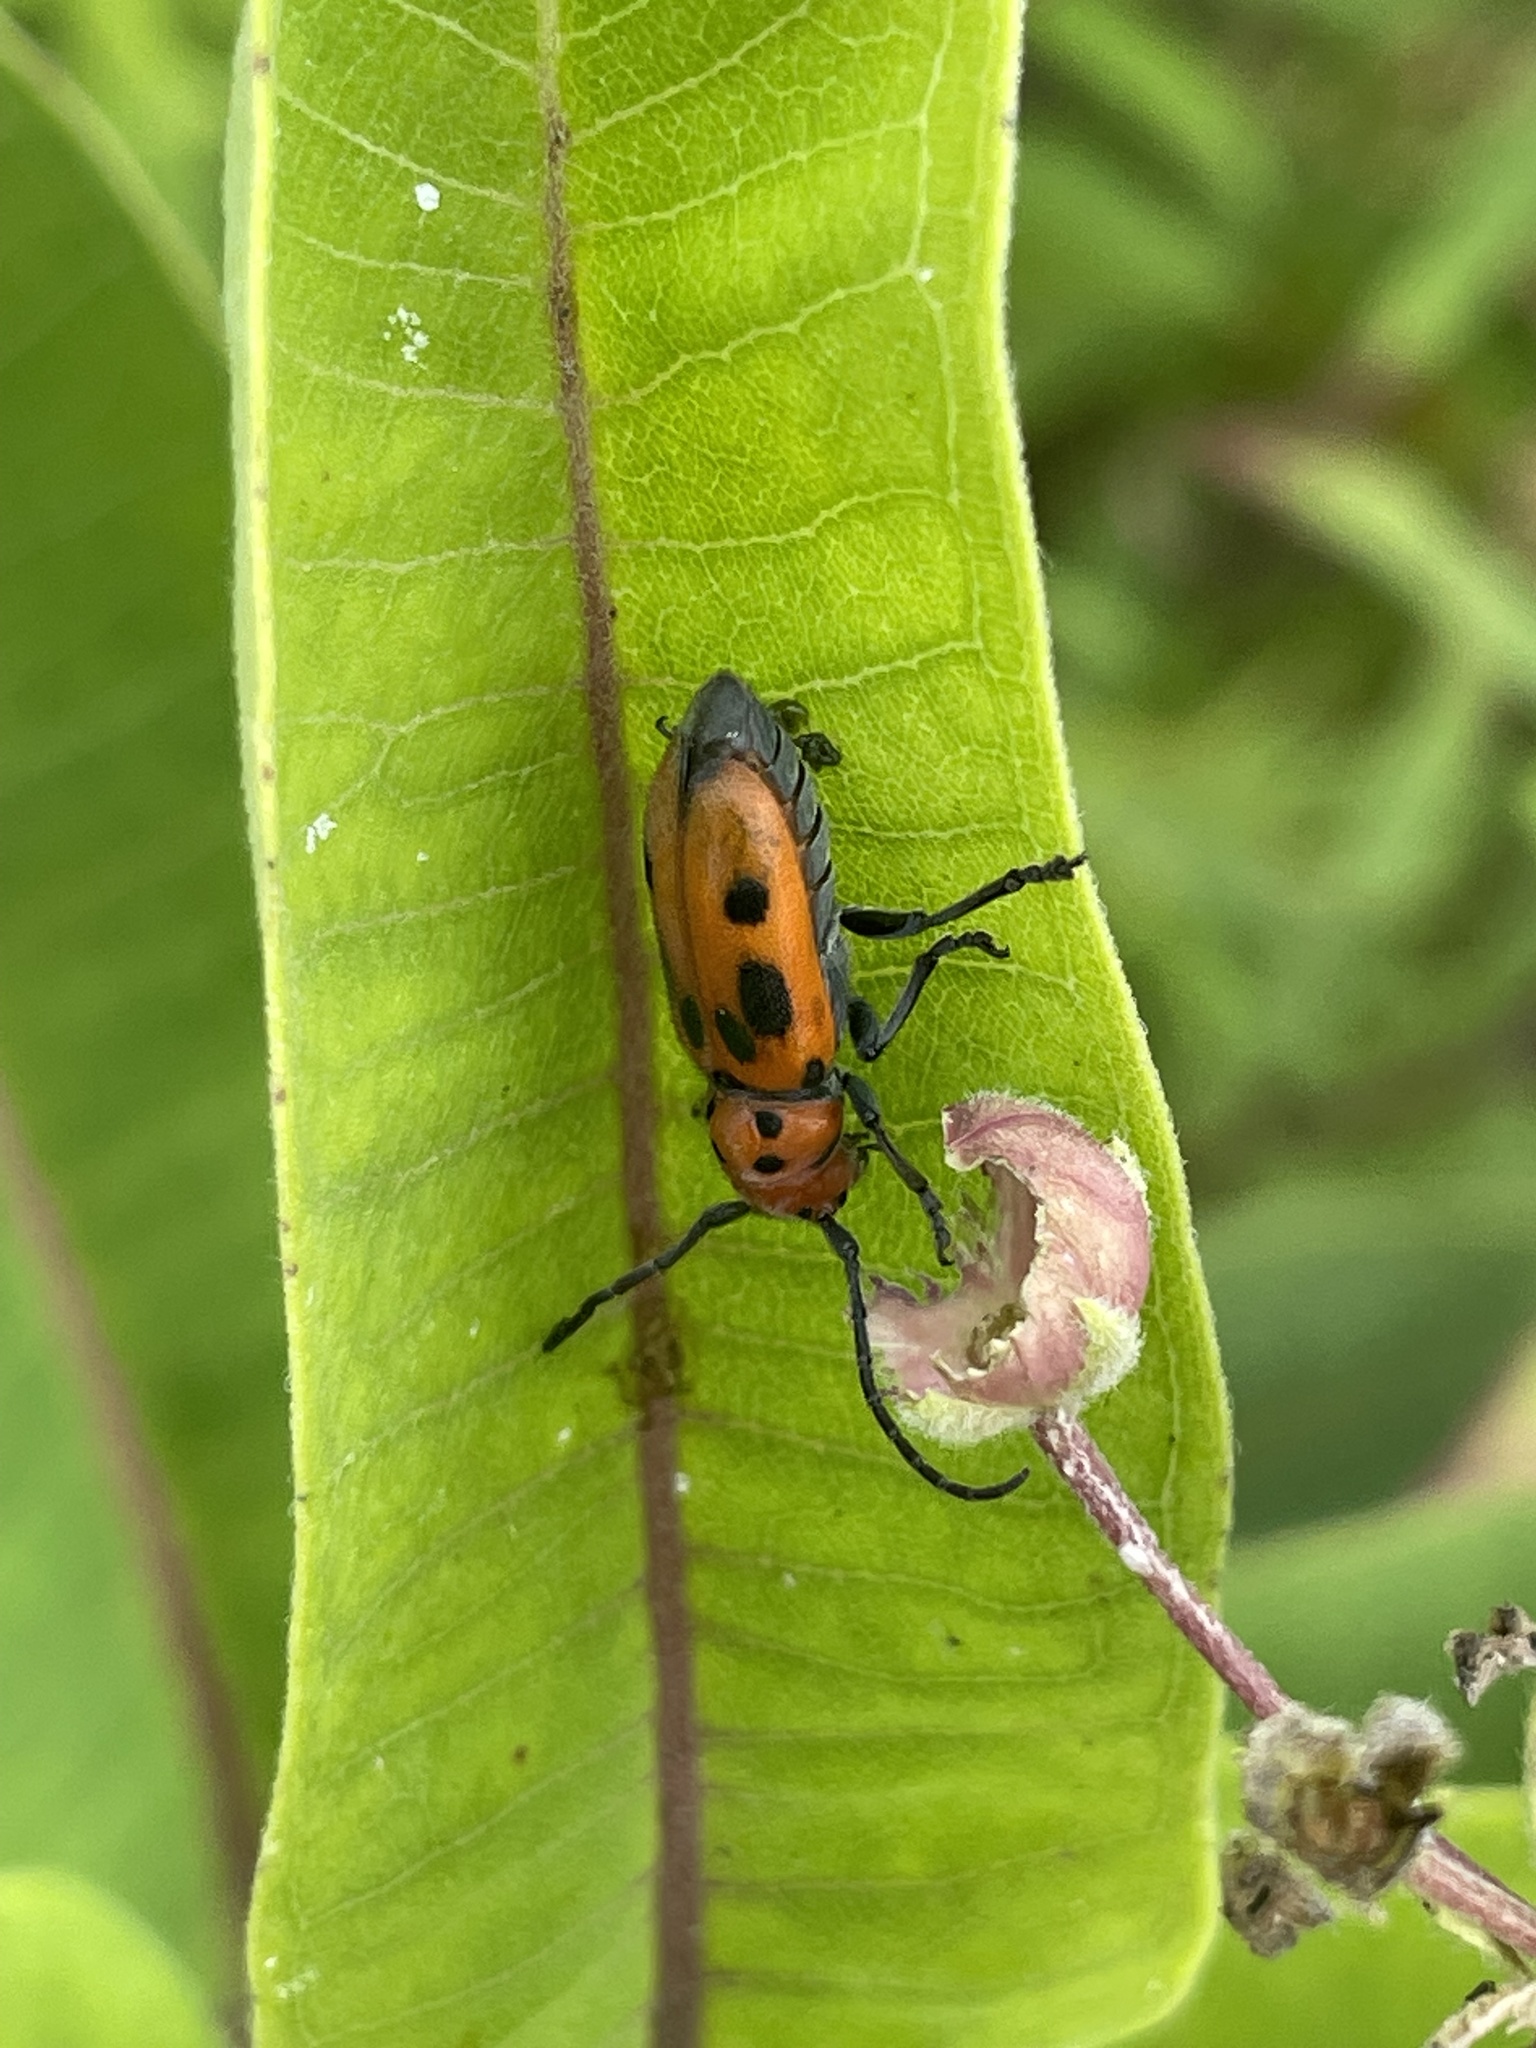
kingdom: Animalia
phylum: Arthropoda
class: Insecta
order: Coleoptera
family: Cerambycidae
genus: Tetraopes
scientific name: Tetraopes tetrophthalmus
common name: Red milkweed beetle
